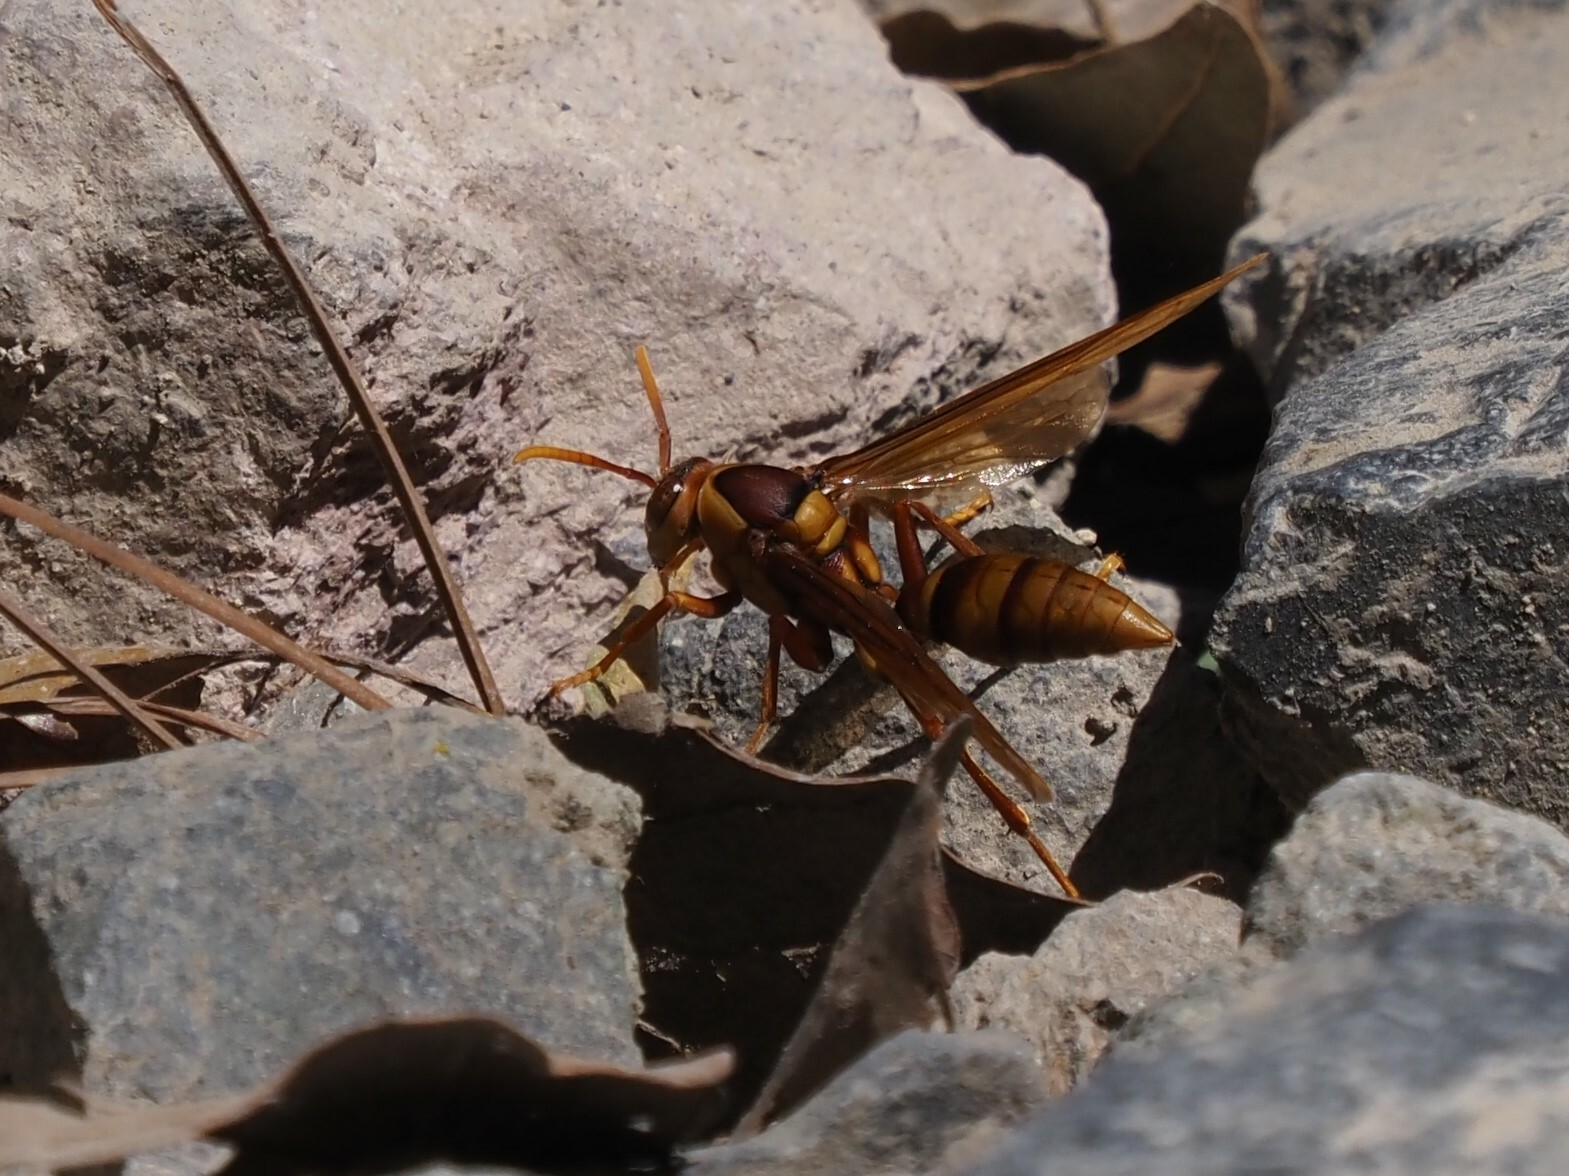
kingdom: Animalia
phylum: Arthropoda
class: Insecta
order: Hymenoptera
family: Eumenidae
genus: Polistes
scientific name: Polistes carnifex
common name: Paper wasp
